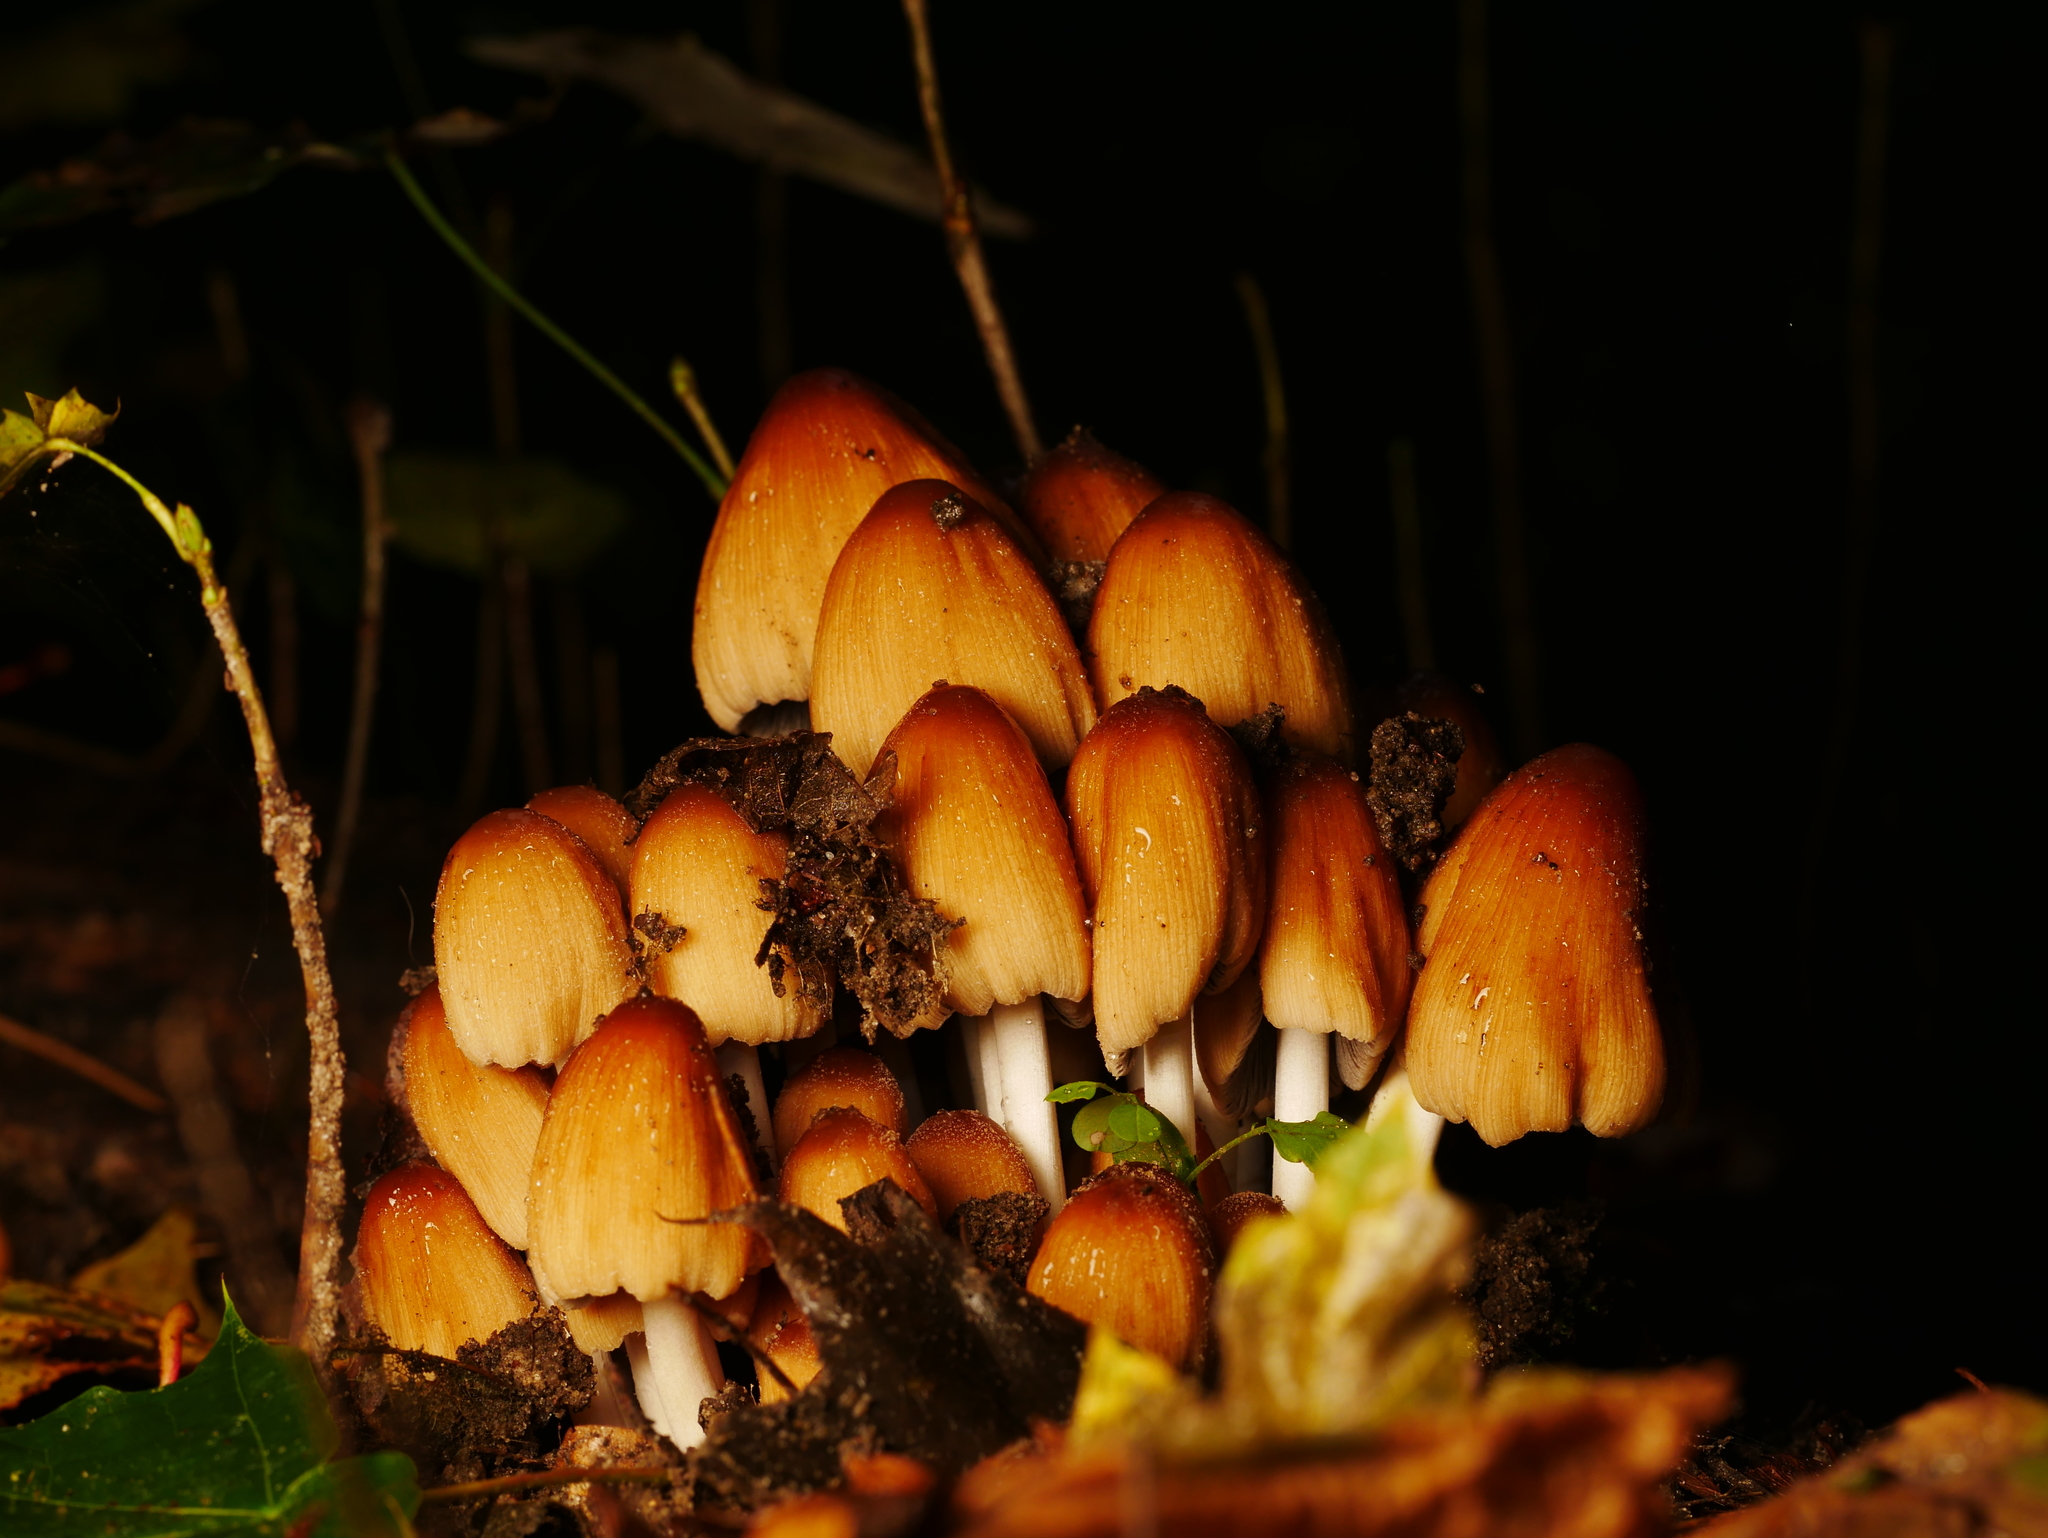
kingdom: Fungi
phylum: Basidiomycota
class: Agaricomycetes
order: Agaricales
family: Psathyrellaceae
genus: Coprinellus
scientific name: Coprinellus micaceus
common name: Glistening ink-cap
